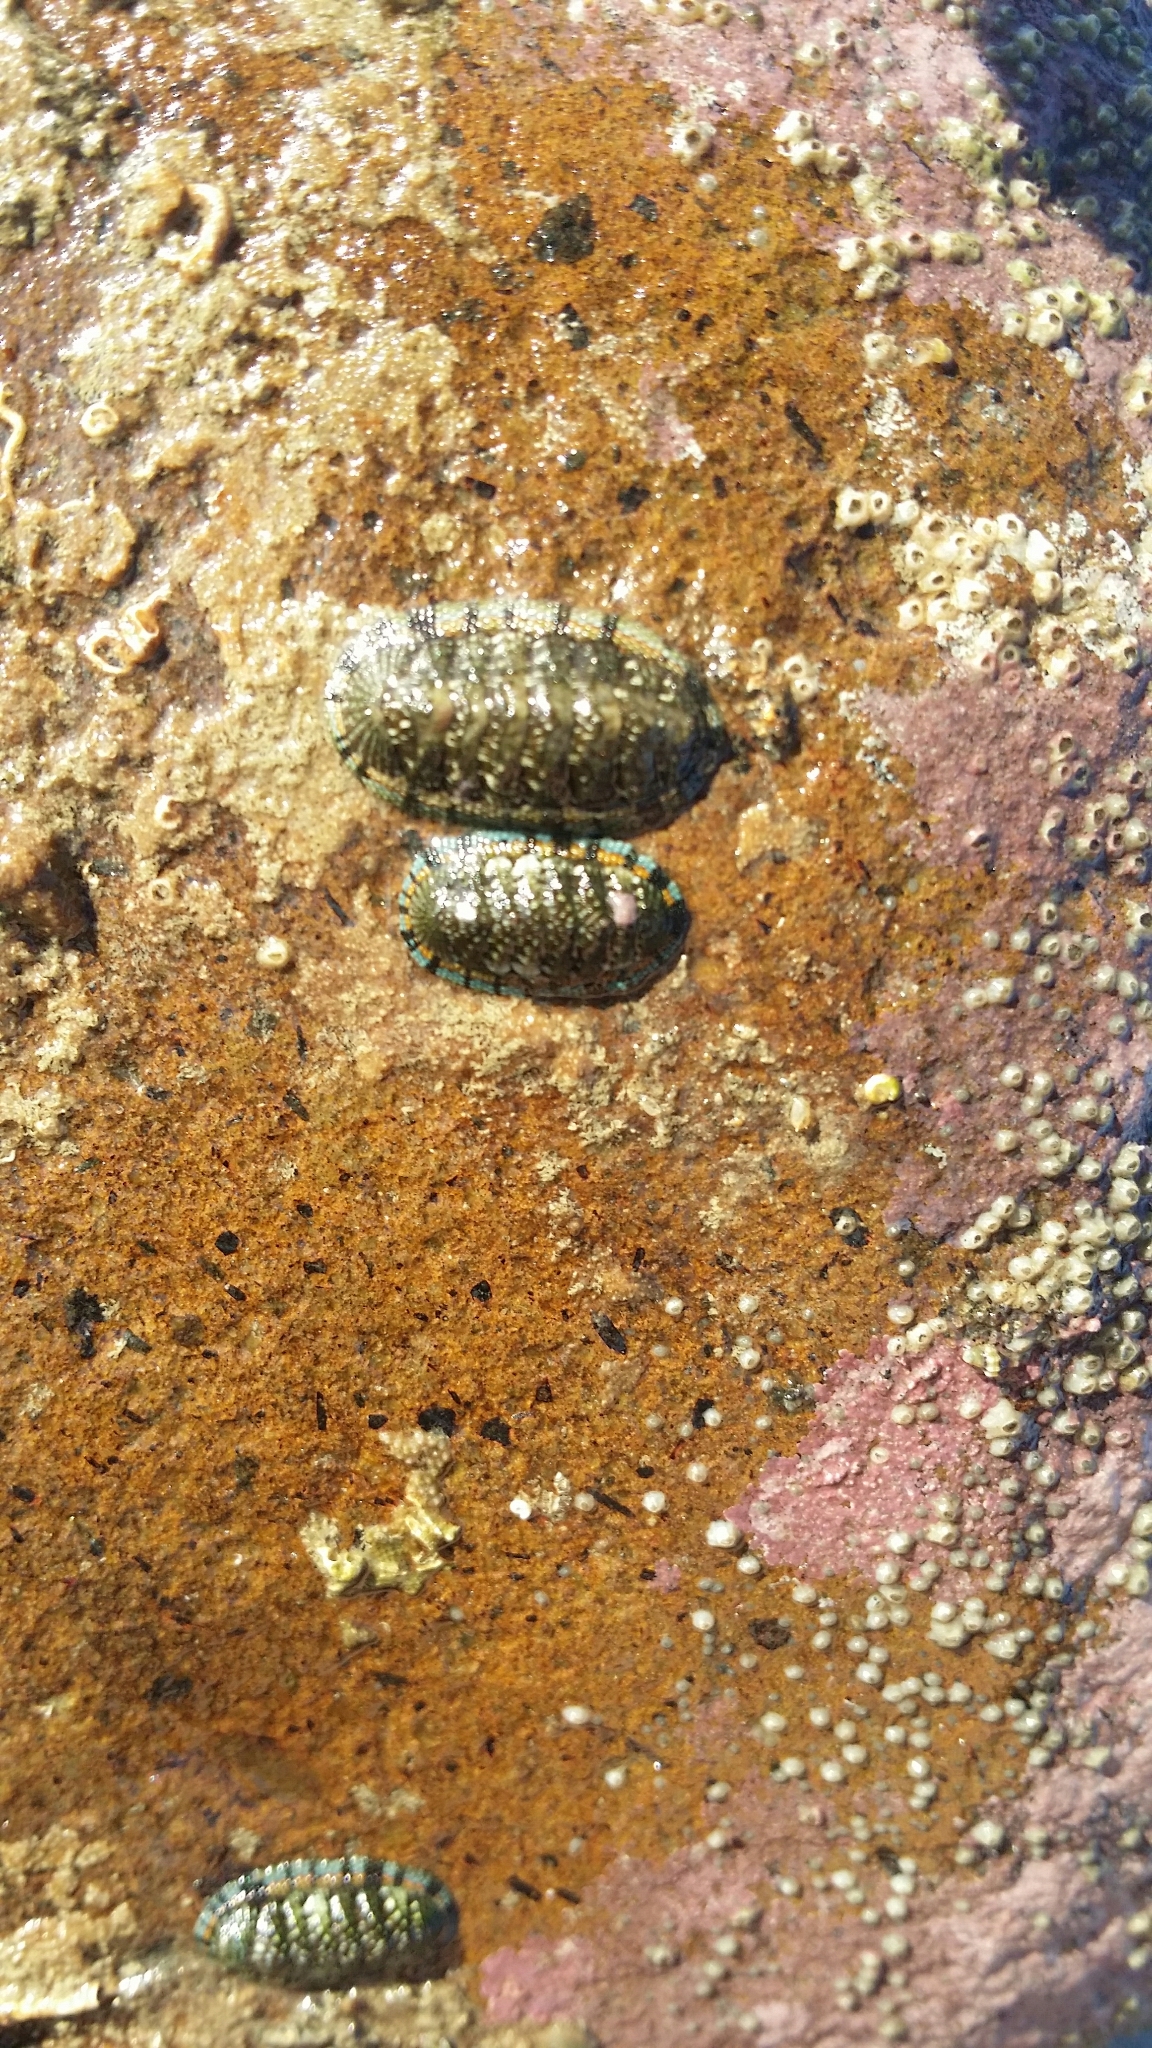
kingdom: Animalia
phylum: Mollusca
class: Polyplacophora
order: Chitonida
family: Chitonidae
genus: Sypharochiton
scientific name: Sypharochiton sinclairi
